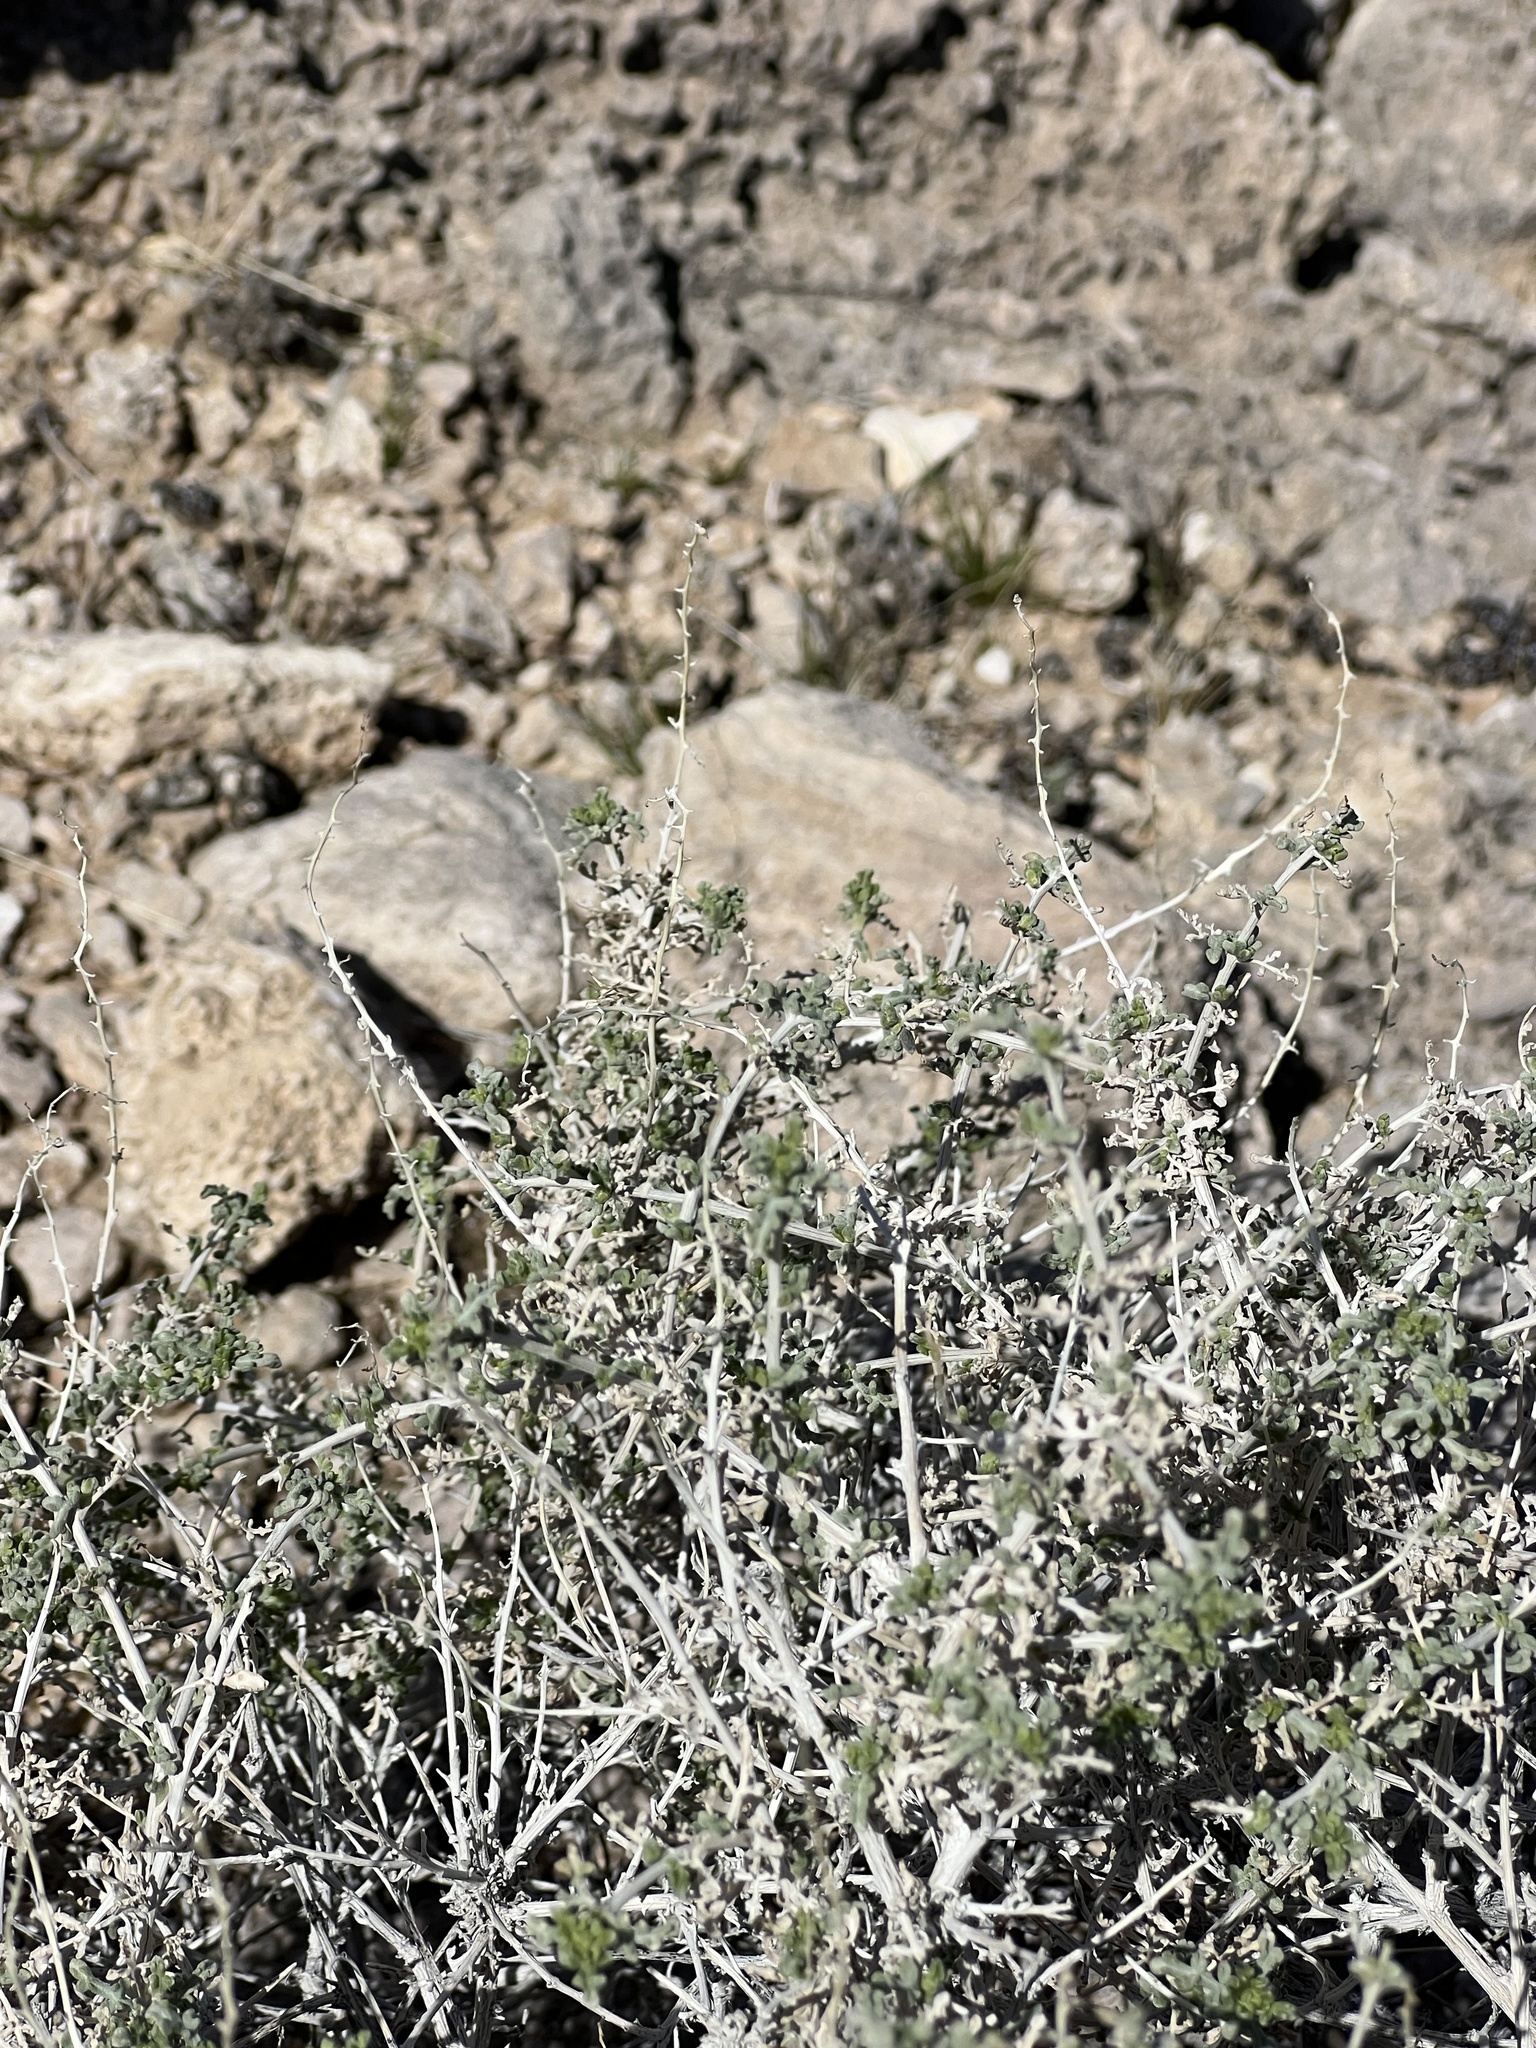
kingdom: Plantae
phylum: Tracheophyta
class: Magnoliopsida
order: Asterales
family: Asteraceae
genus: Ambrosia
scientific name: Ambrosia dumosa
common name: Bur-sage
